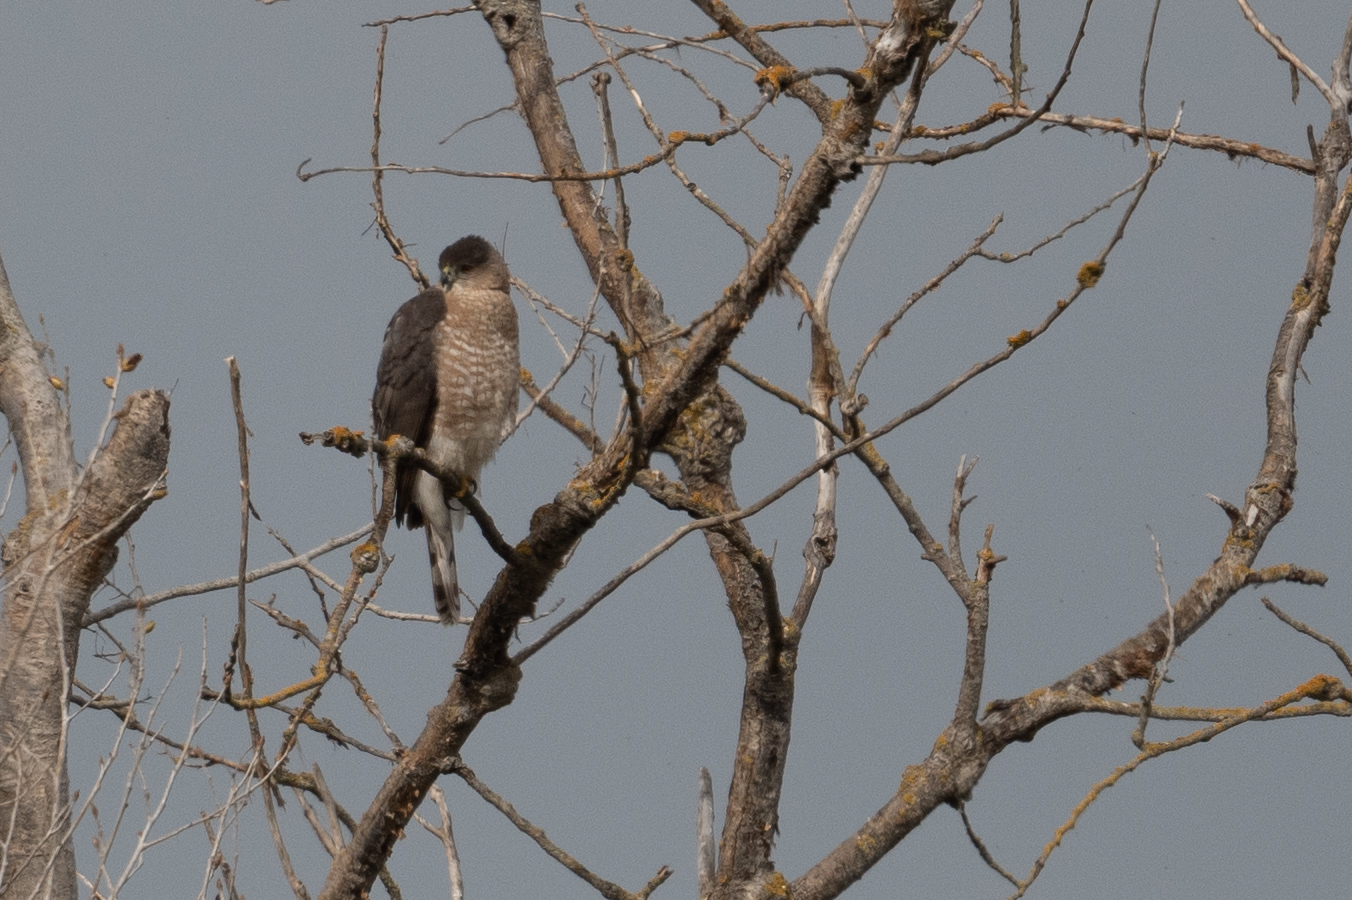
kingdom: Animalia
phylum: Chordata
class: Aves
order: Accipitriformes
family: Accipitridae
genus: Accipiter
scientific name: Accipiter cooperii
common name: Cooper's hawk
